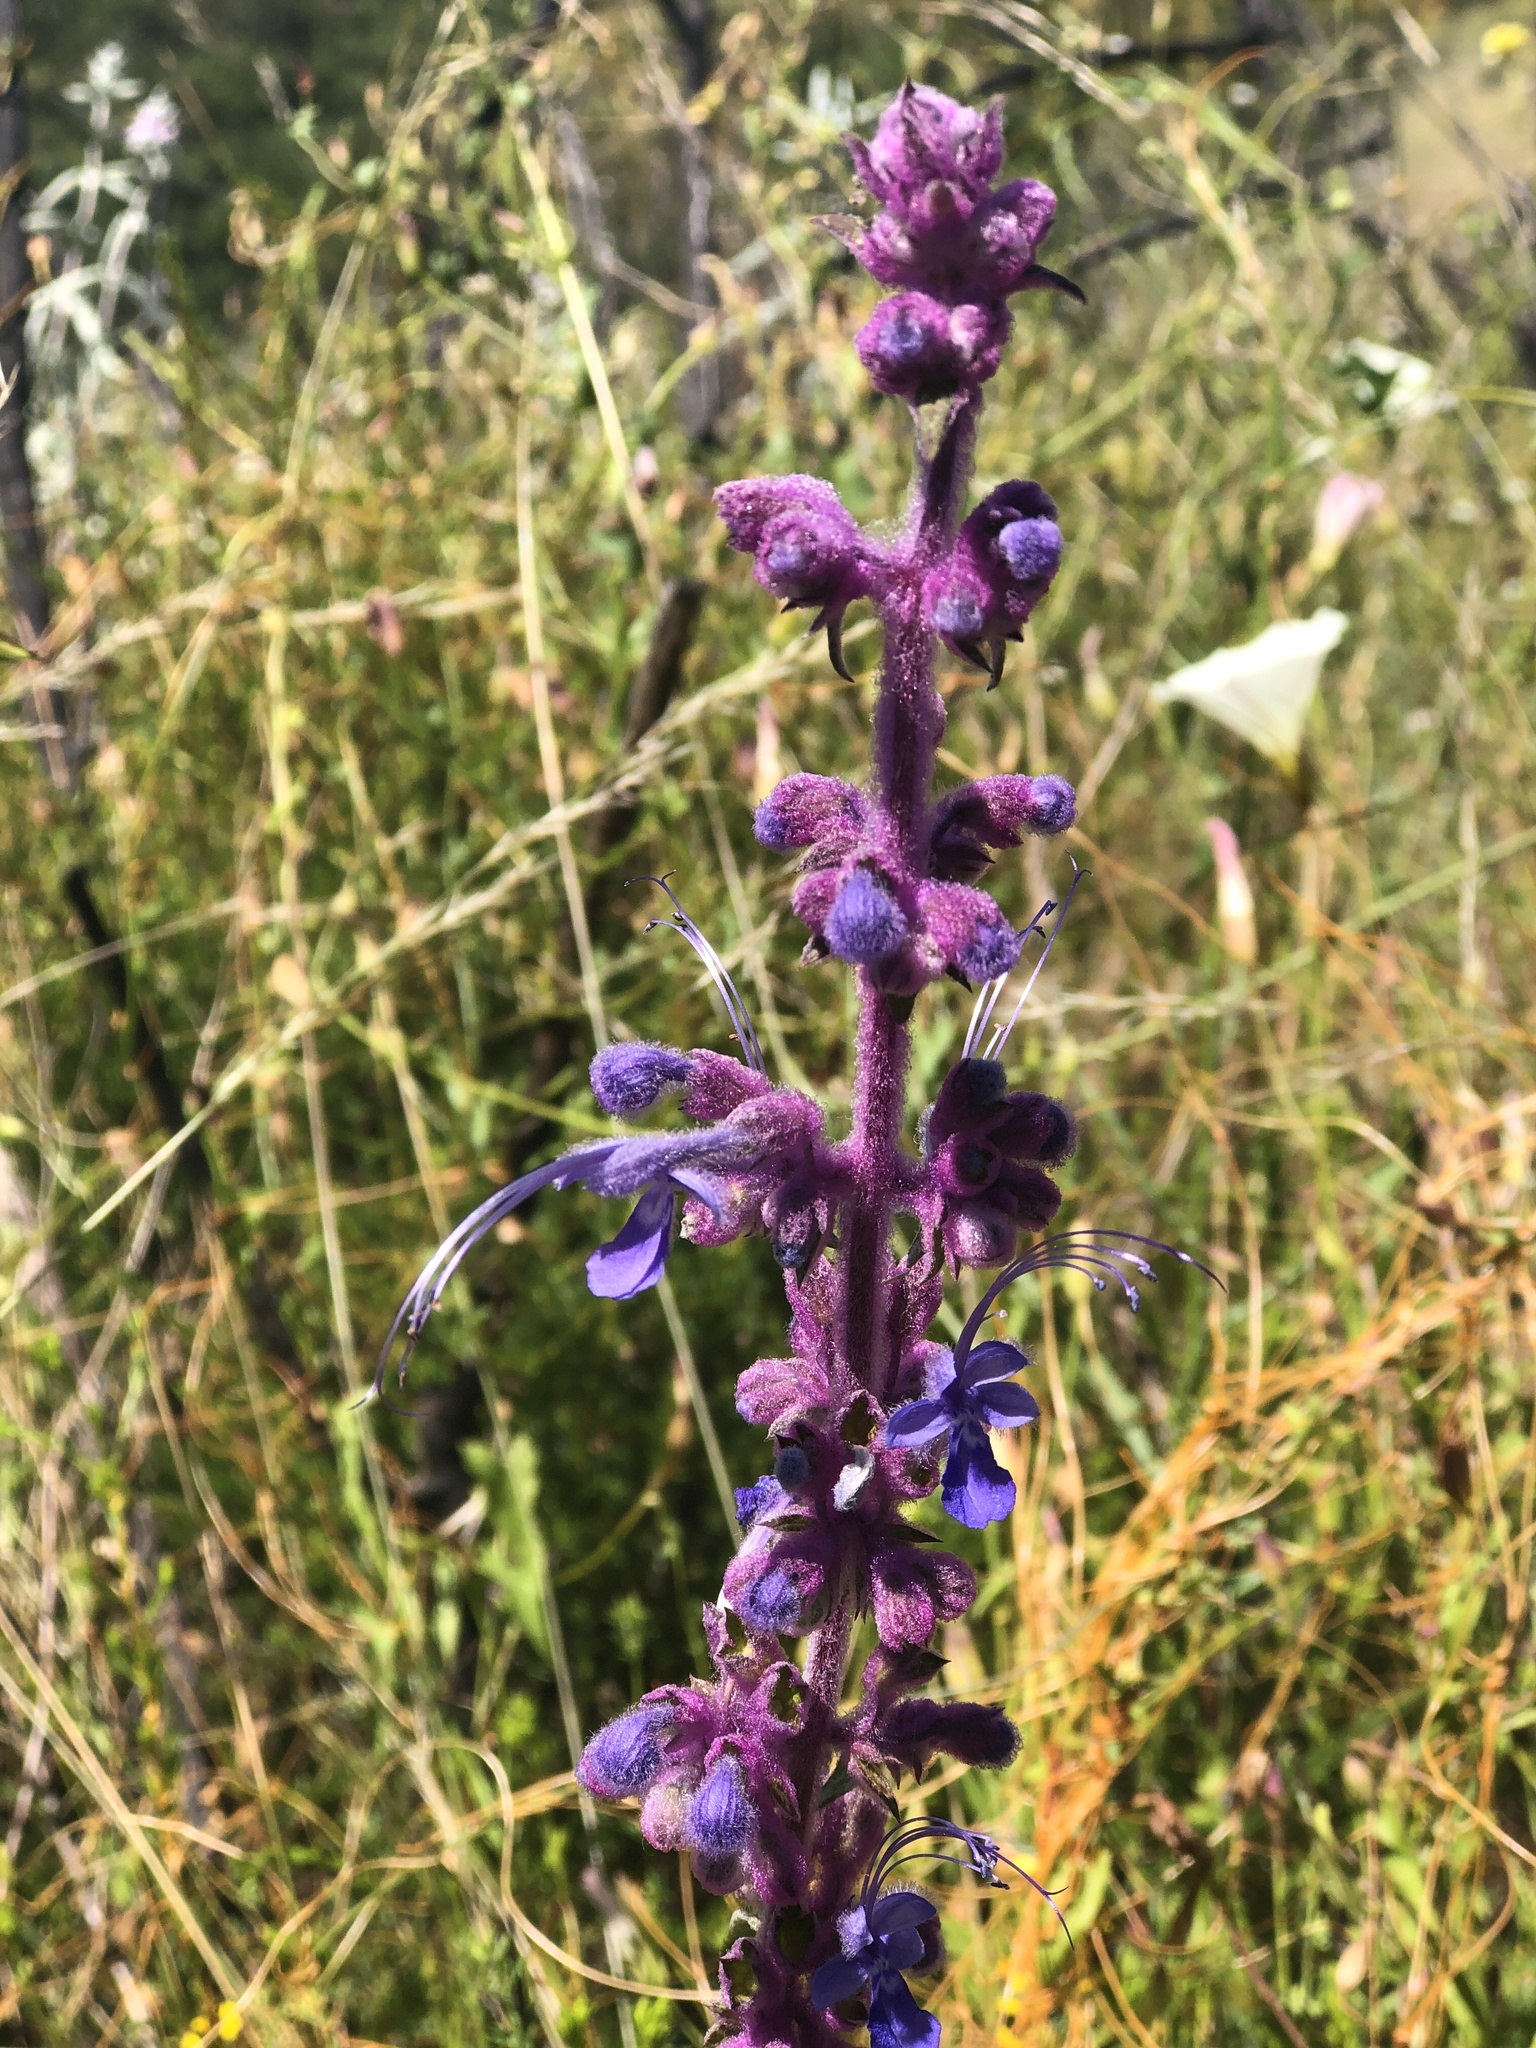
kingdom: Plantae
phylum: Tracheophyta
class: Magnoliopsida
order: Lamiales
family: Lamiaceae
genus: Trichostema
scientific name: Trichostema lanatum
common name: Woolly bluecurls
